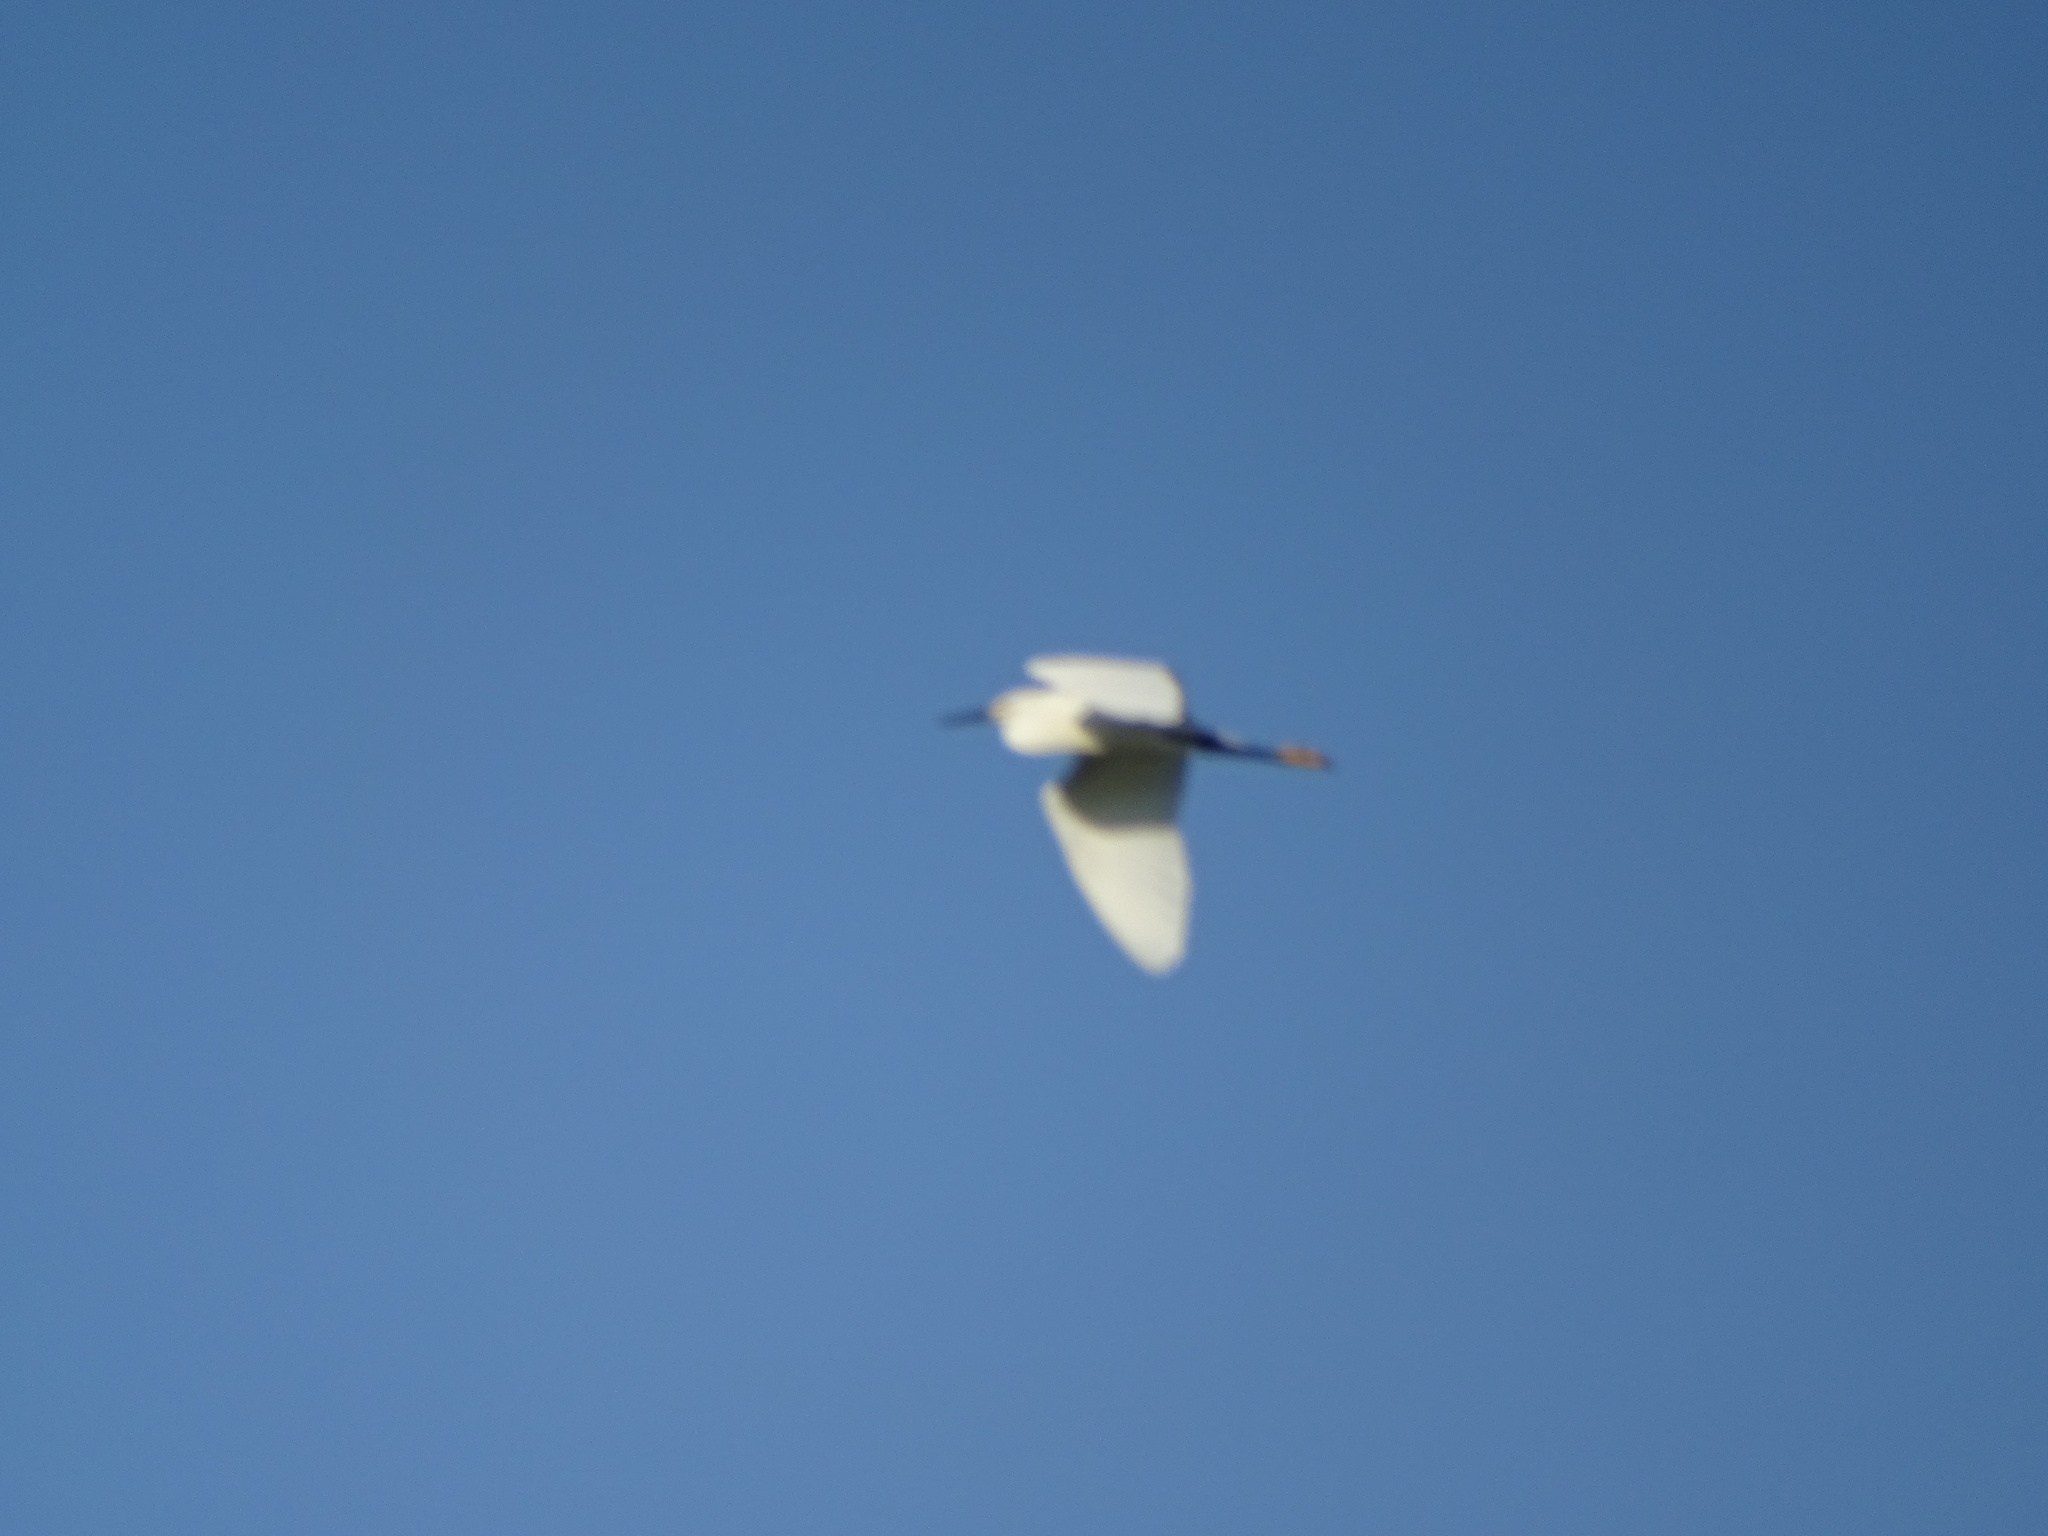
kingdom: Animalia
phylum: Chordata
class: Aves
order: Pelecaniformes
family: Ardeidae
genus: Egretta
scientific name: Egretta thula
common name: Snowy egret
